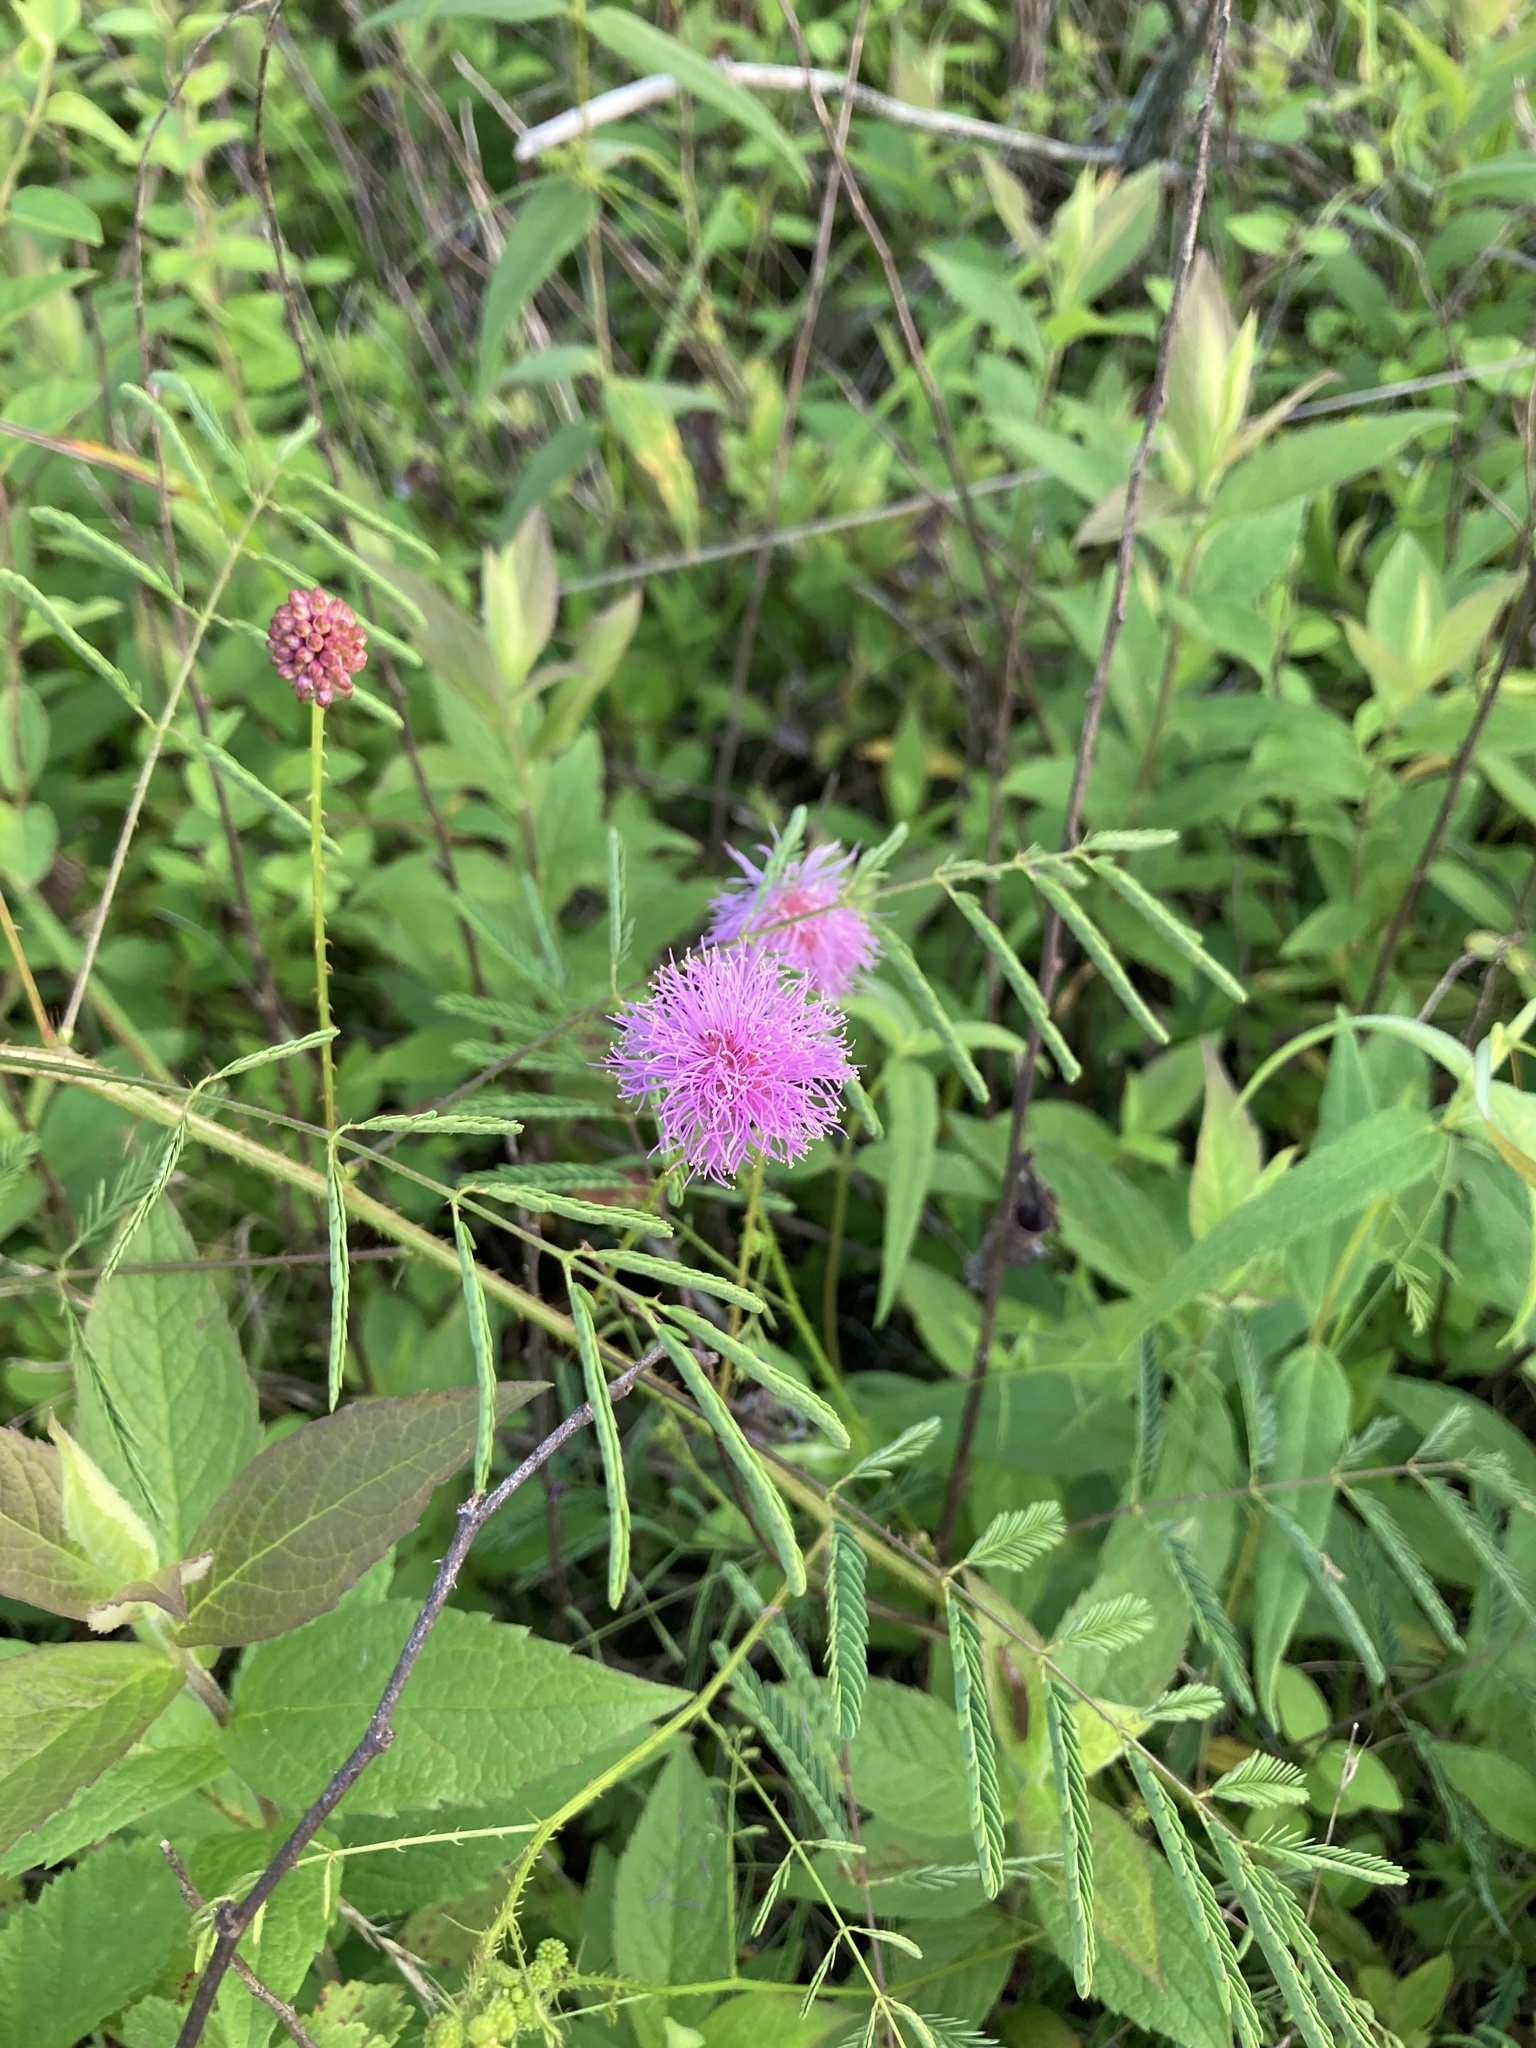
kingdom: Plantae
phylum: Tracheophyta
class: Magnoliopsida
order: Fabales
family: Fabaceae
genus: Mimosa
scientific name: Mimosa quadrivalvis
